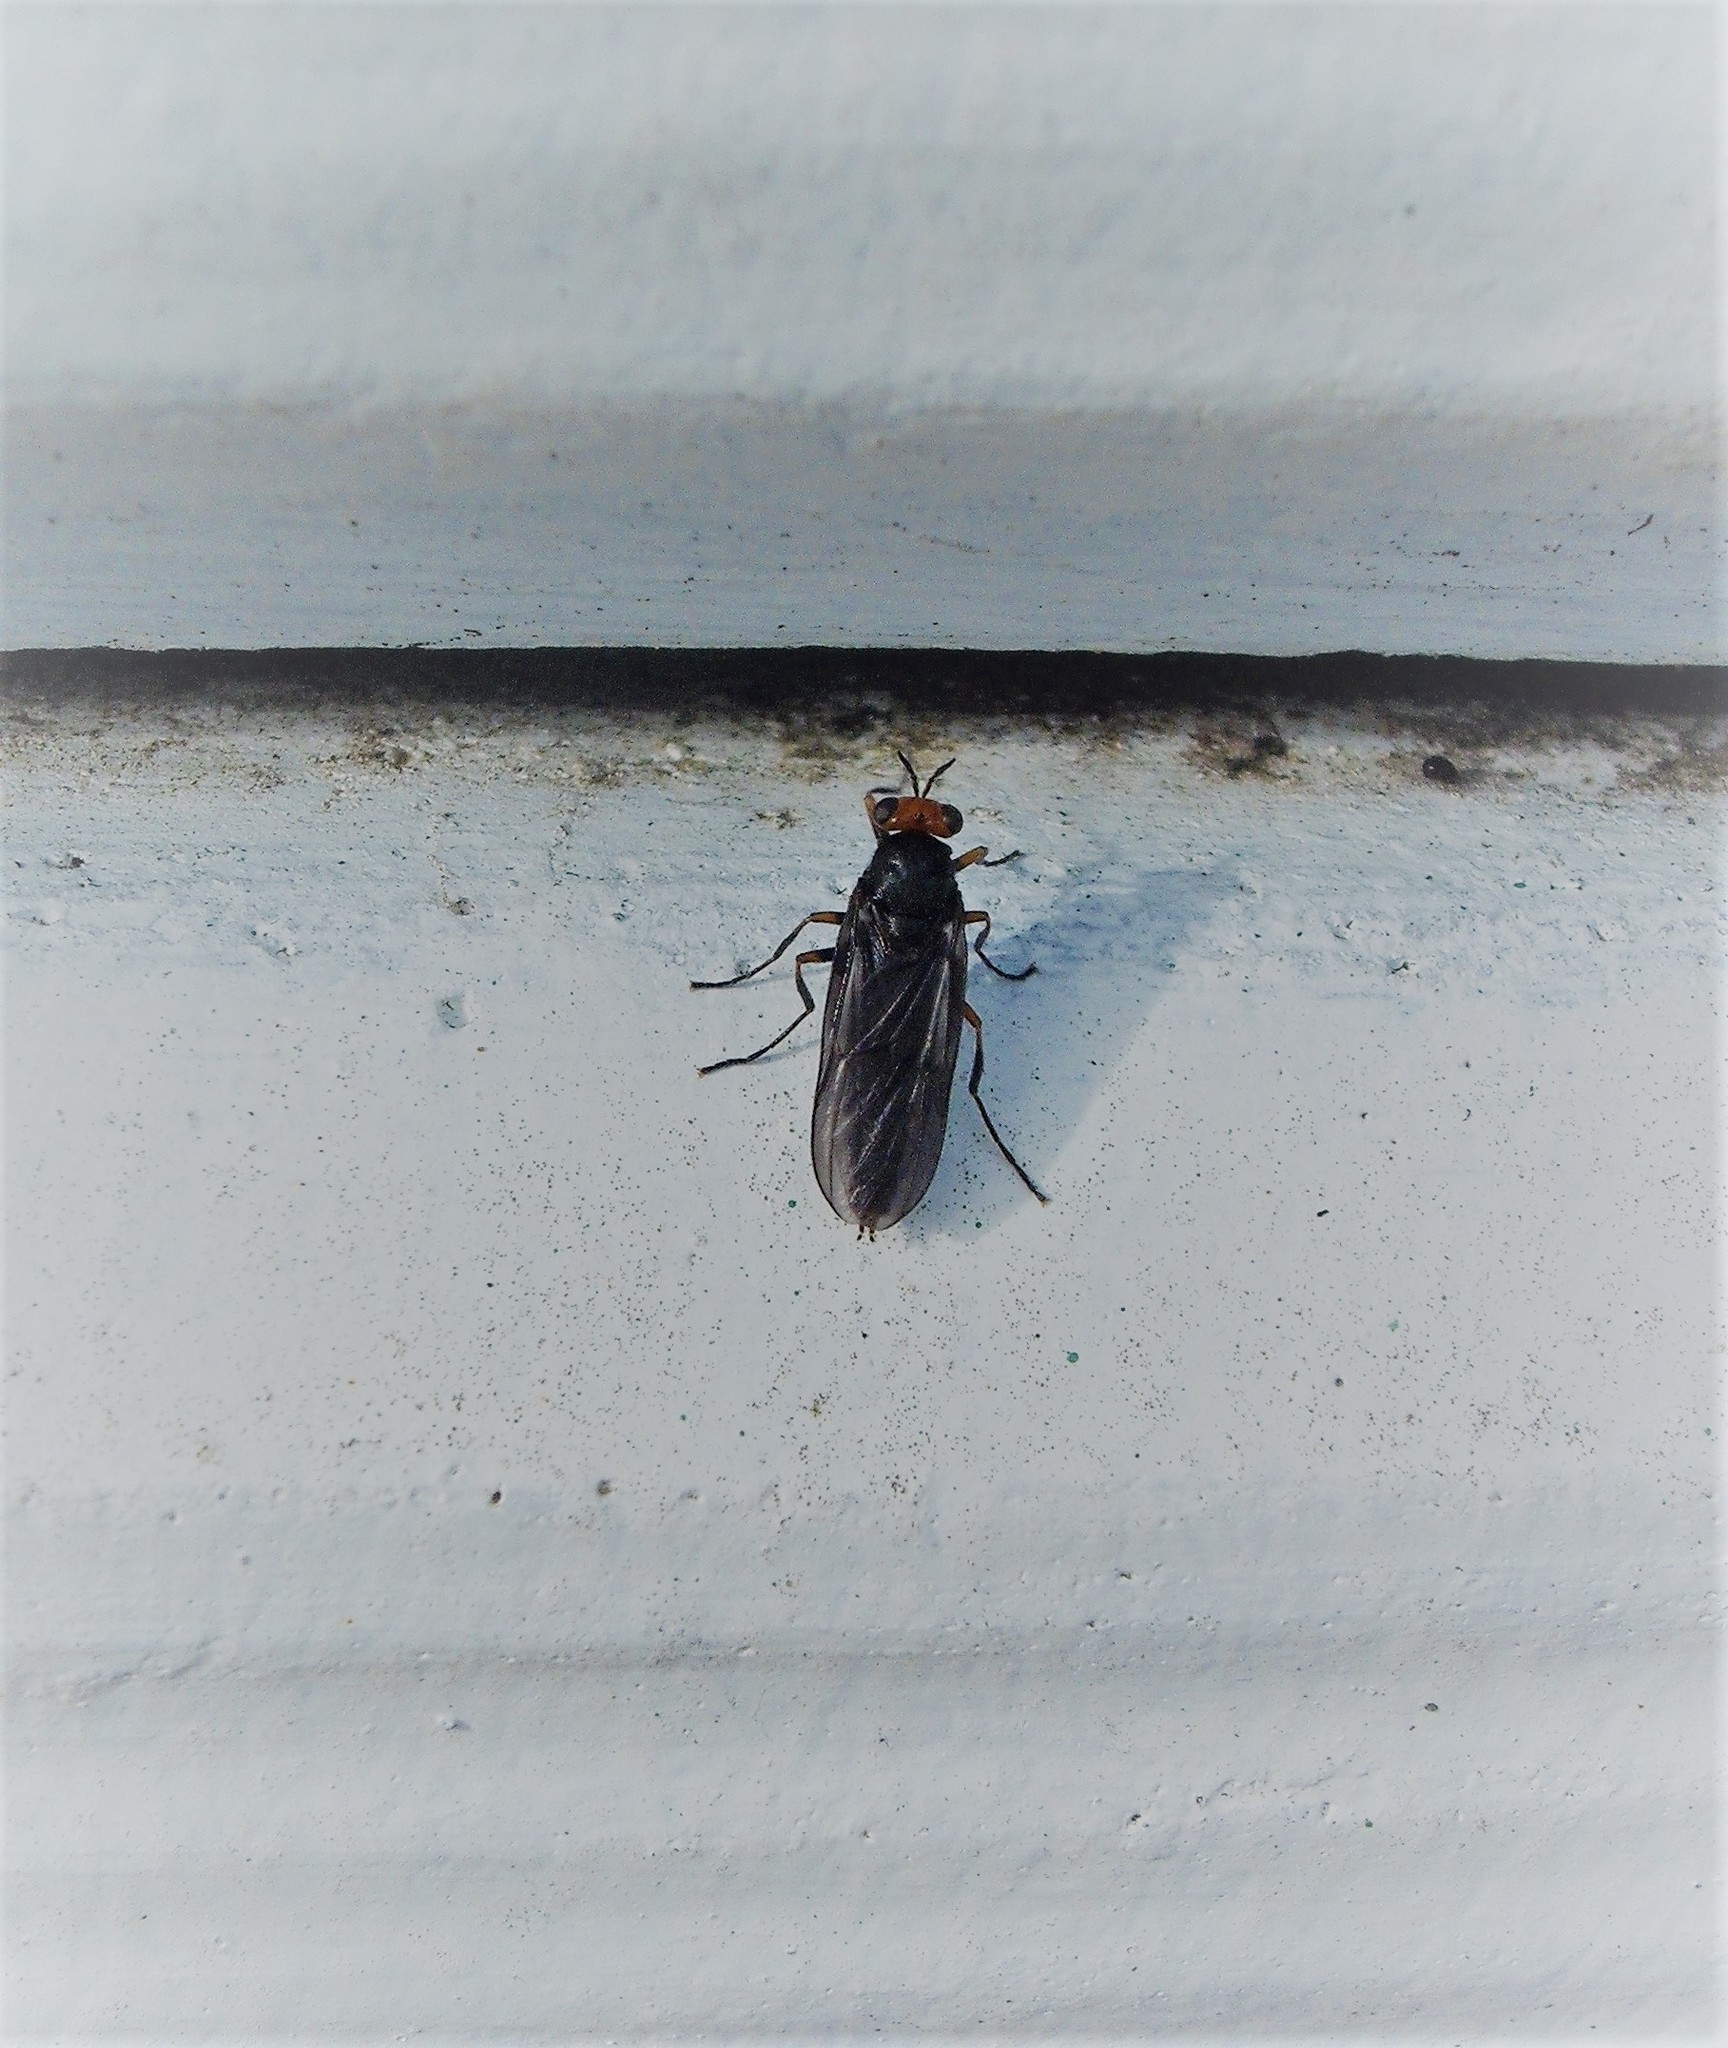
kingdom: Animalia
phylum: Arthropoda
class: Insecta
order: Diptera
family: Stratiomyidae
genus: Inopus
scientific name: Inopus rubriceps
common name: Soldier fly
